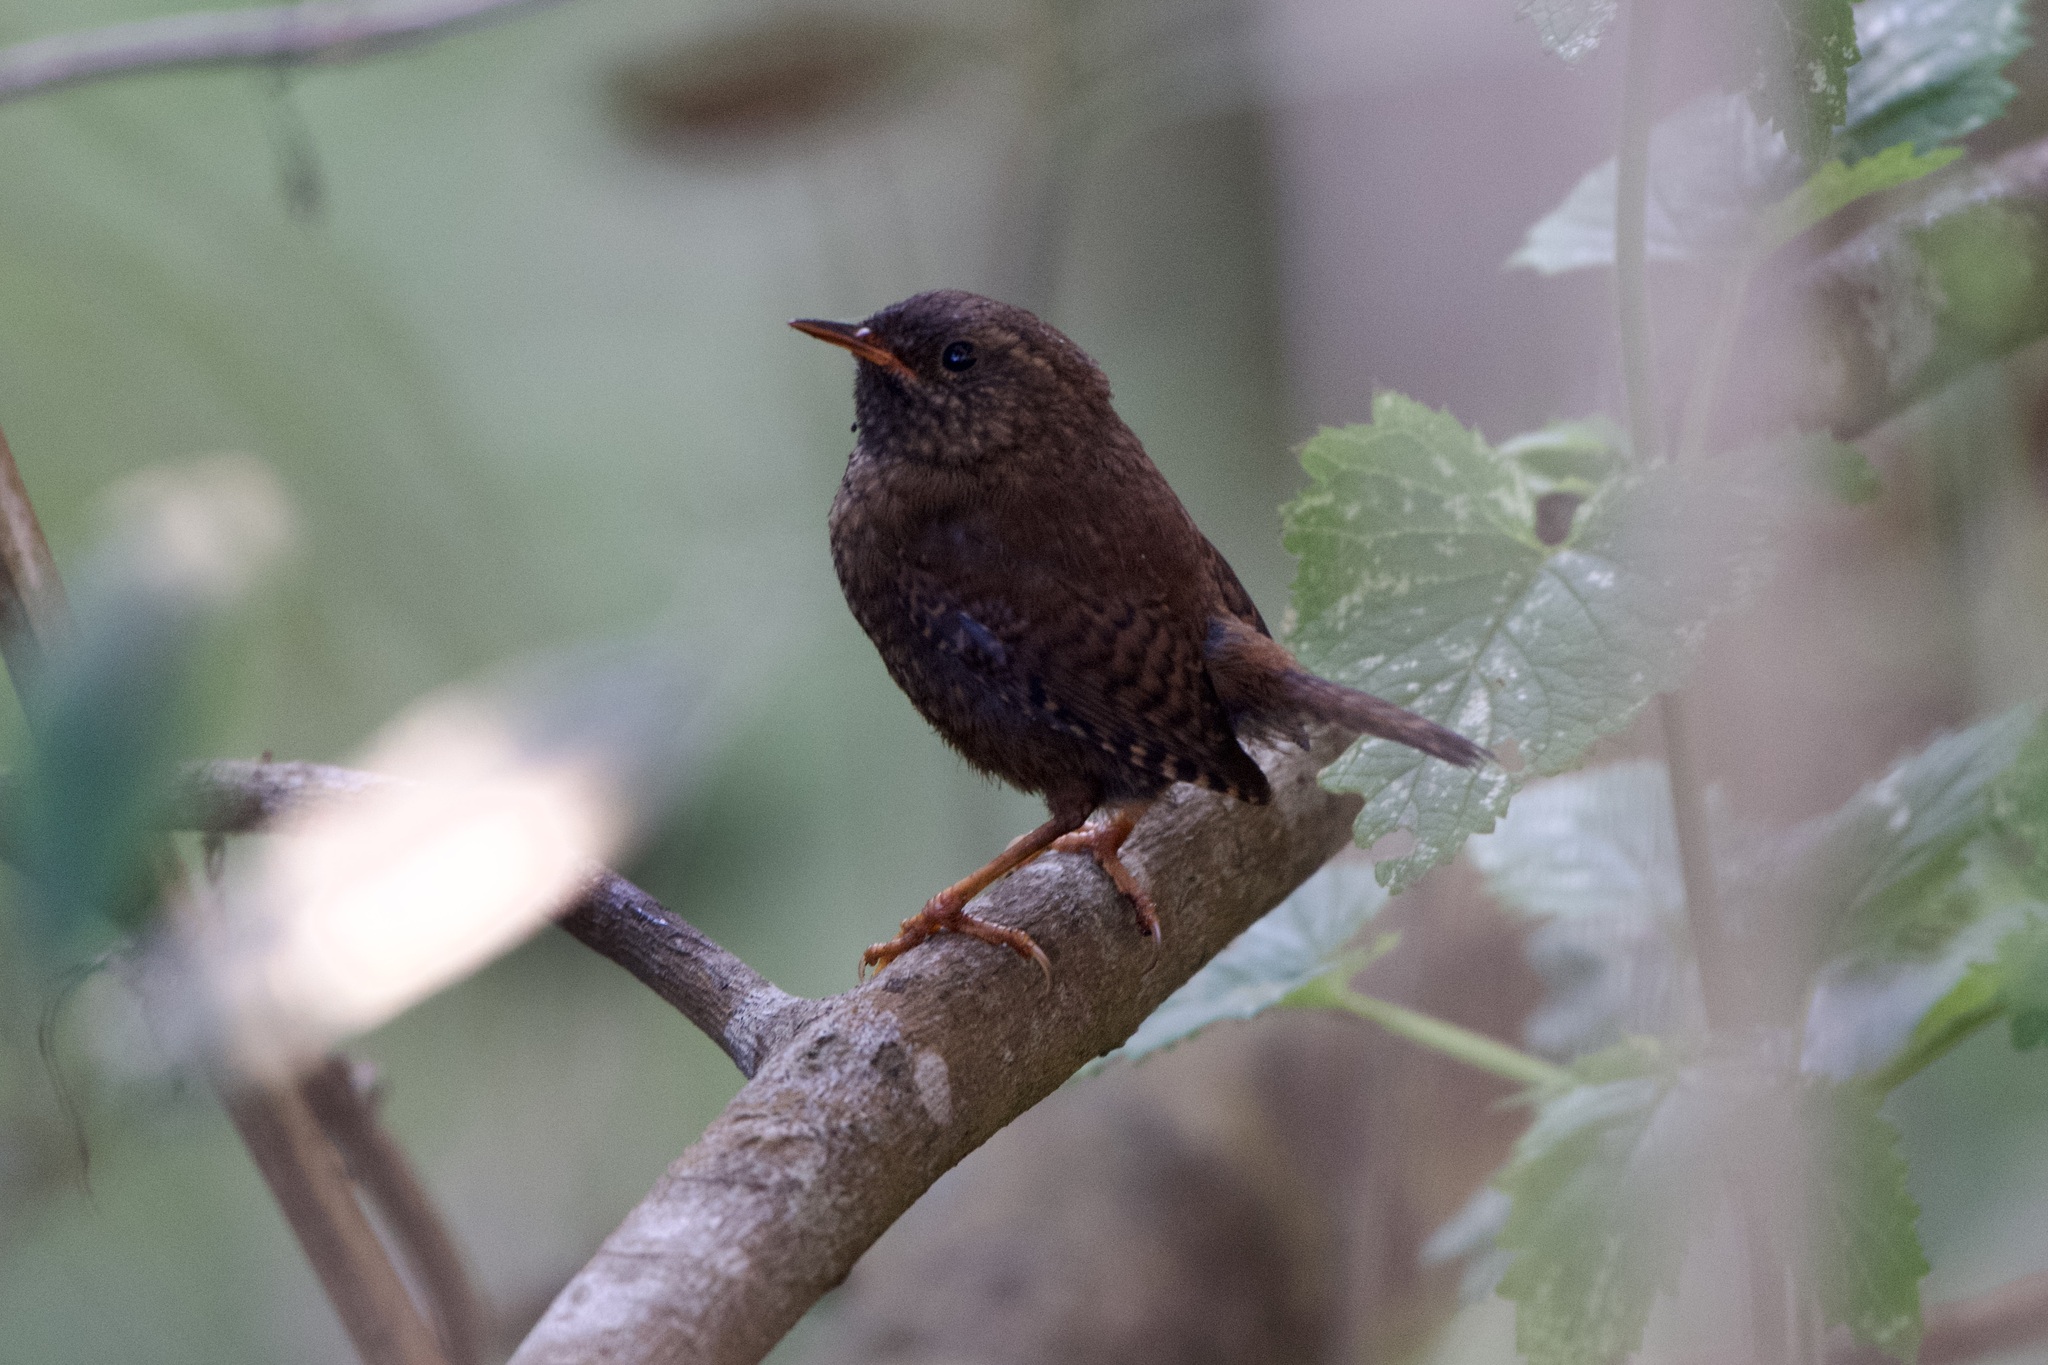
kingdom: Animalia
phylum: Chordata
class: Aves
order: Passeriformes
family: Troglodytidae
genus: Troglodytes
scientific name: Troglodytes pacificus
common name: Pacific wren
